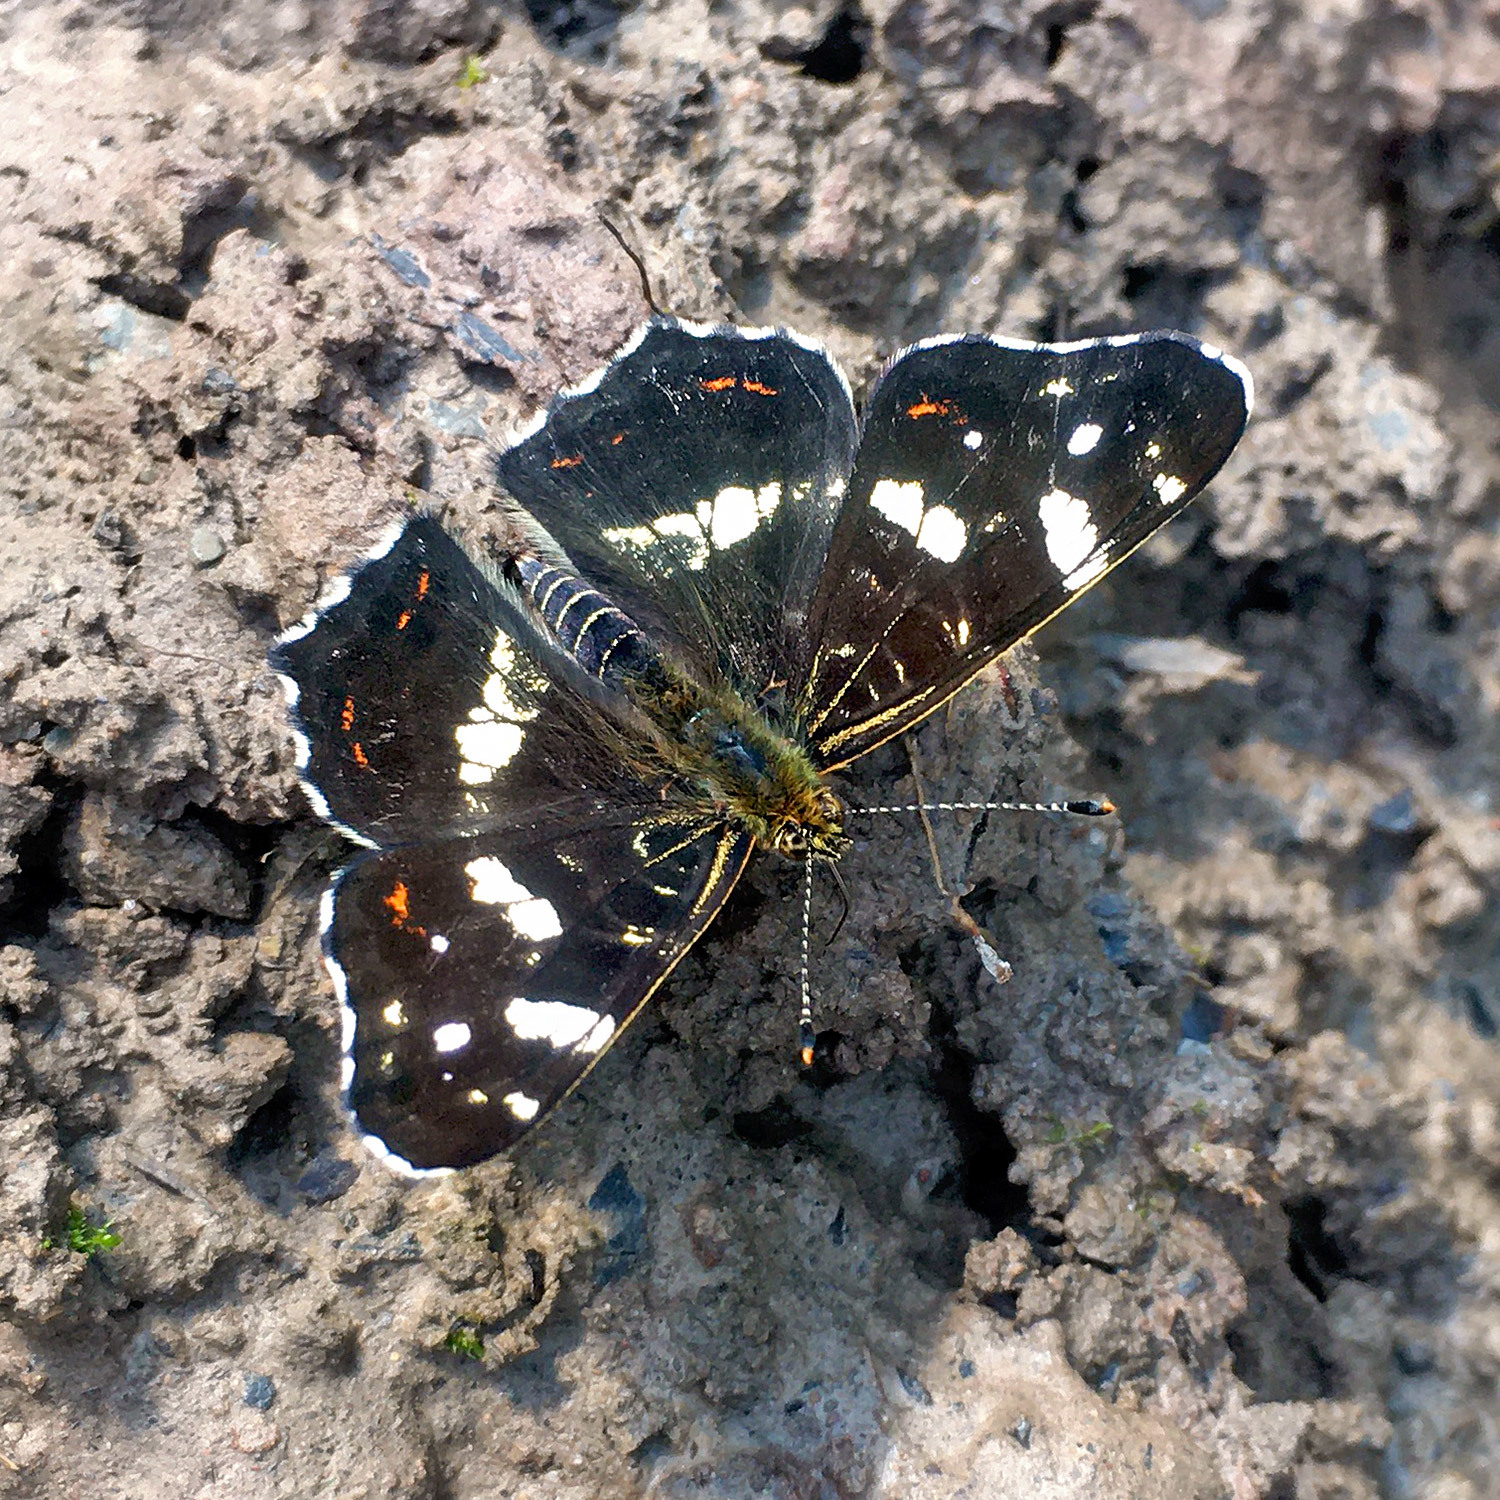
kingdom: Animalia
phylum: Arthropoda
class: Insecta
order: Lepidoptera
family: Nymphalidae
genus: Araschnia
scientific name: Araschnia levana
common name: Map butterfly
